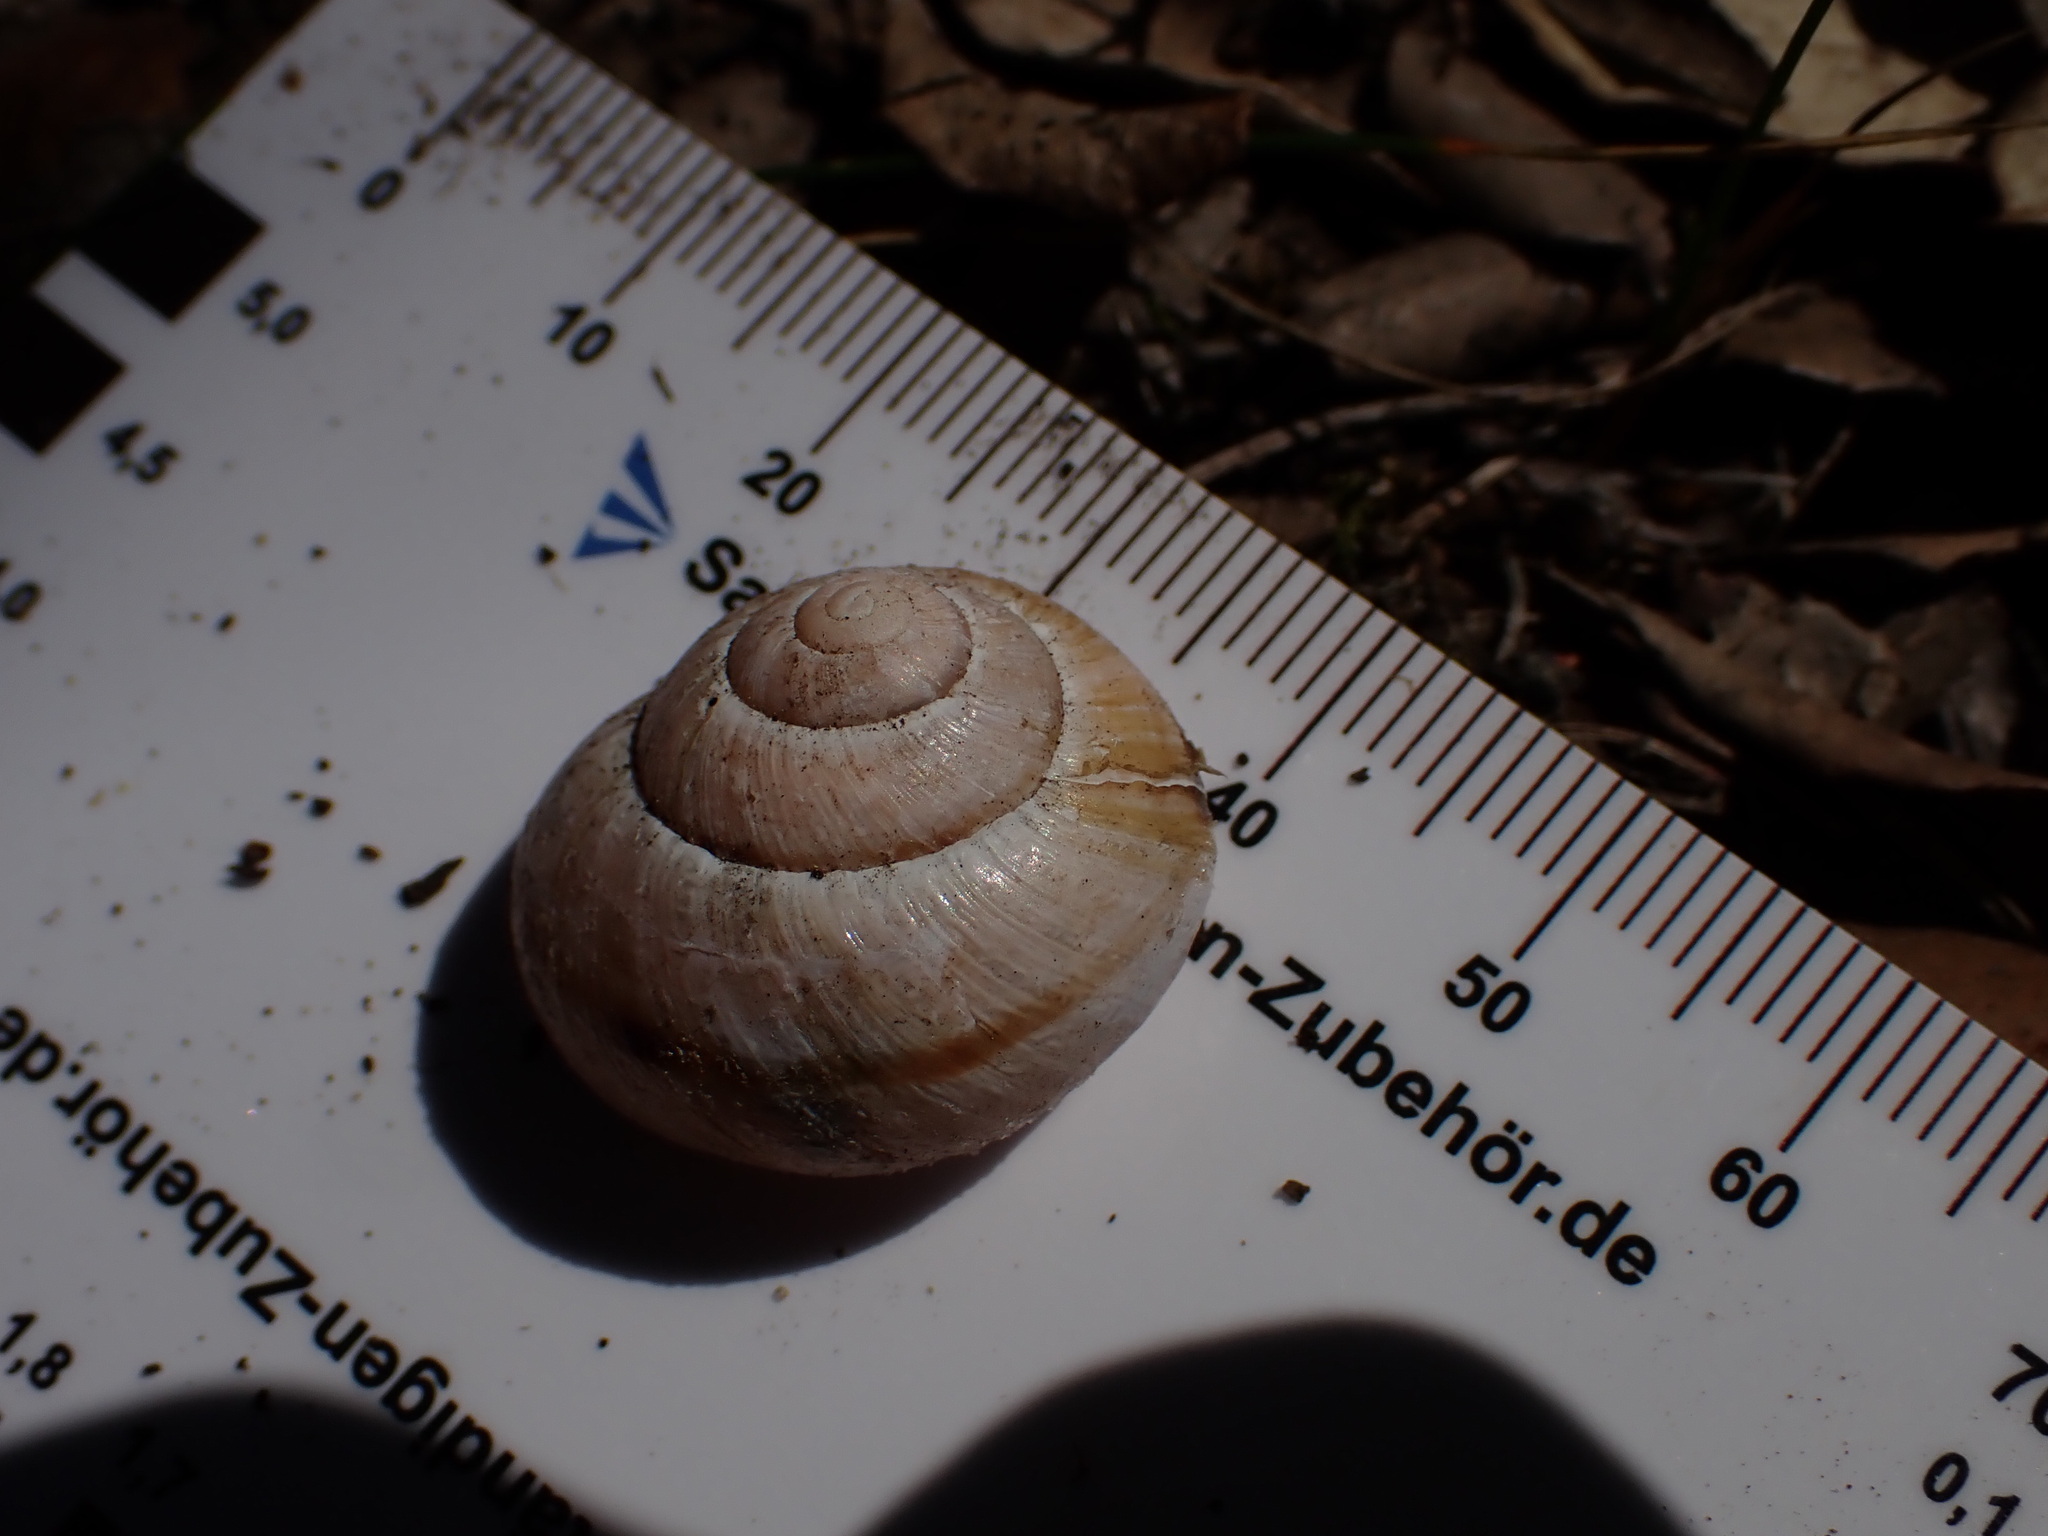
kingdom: Animalia
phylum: Mollusca
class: Gastropoda
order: Stylommatophora
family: Helicidae
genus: Cepaea
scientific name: Cepaea nemoralis
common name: Grovesnail
